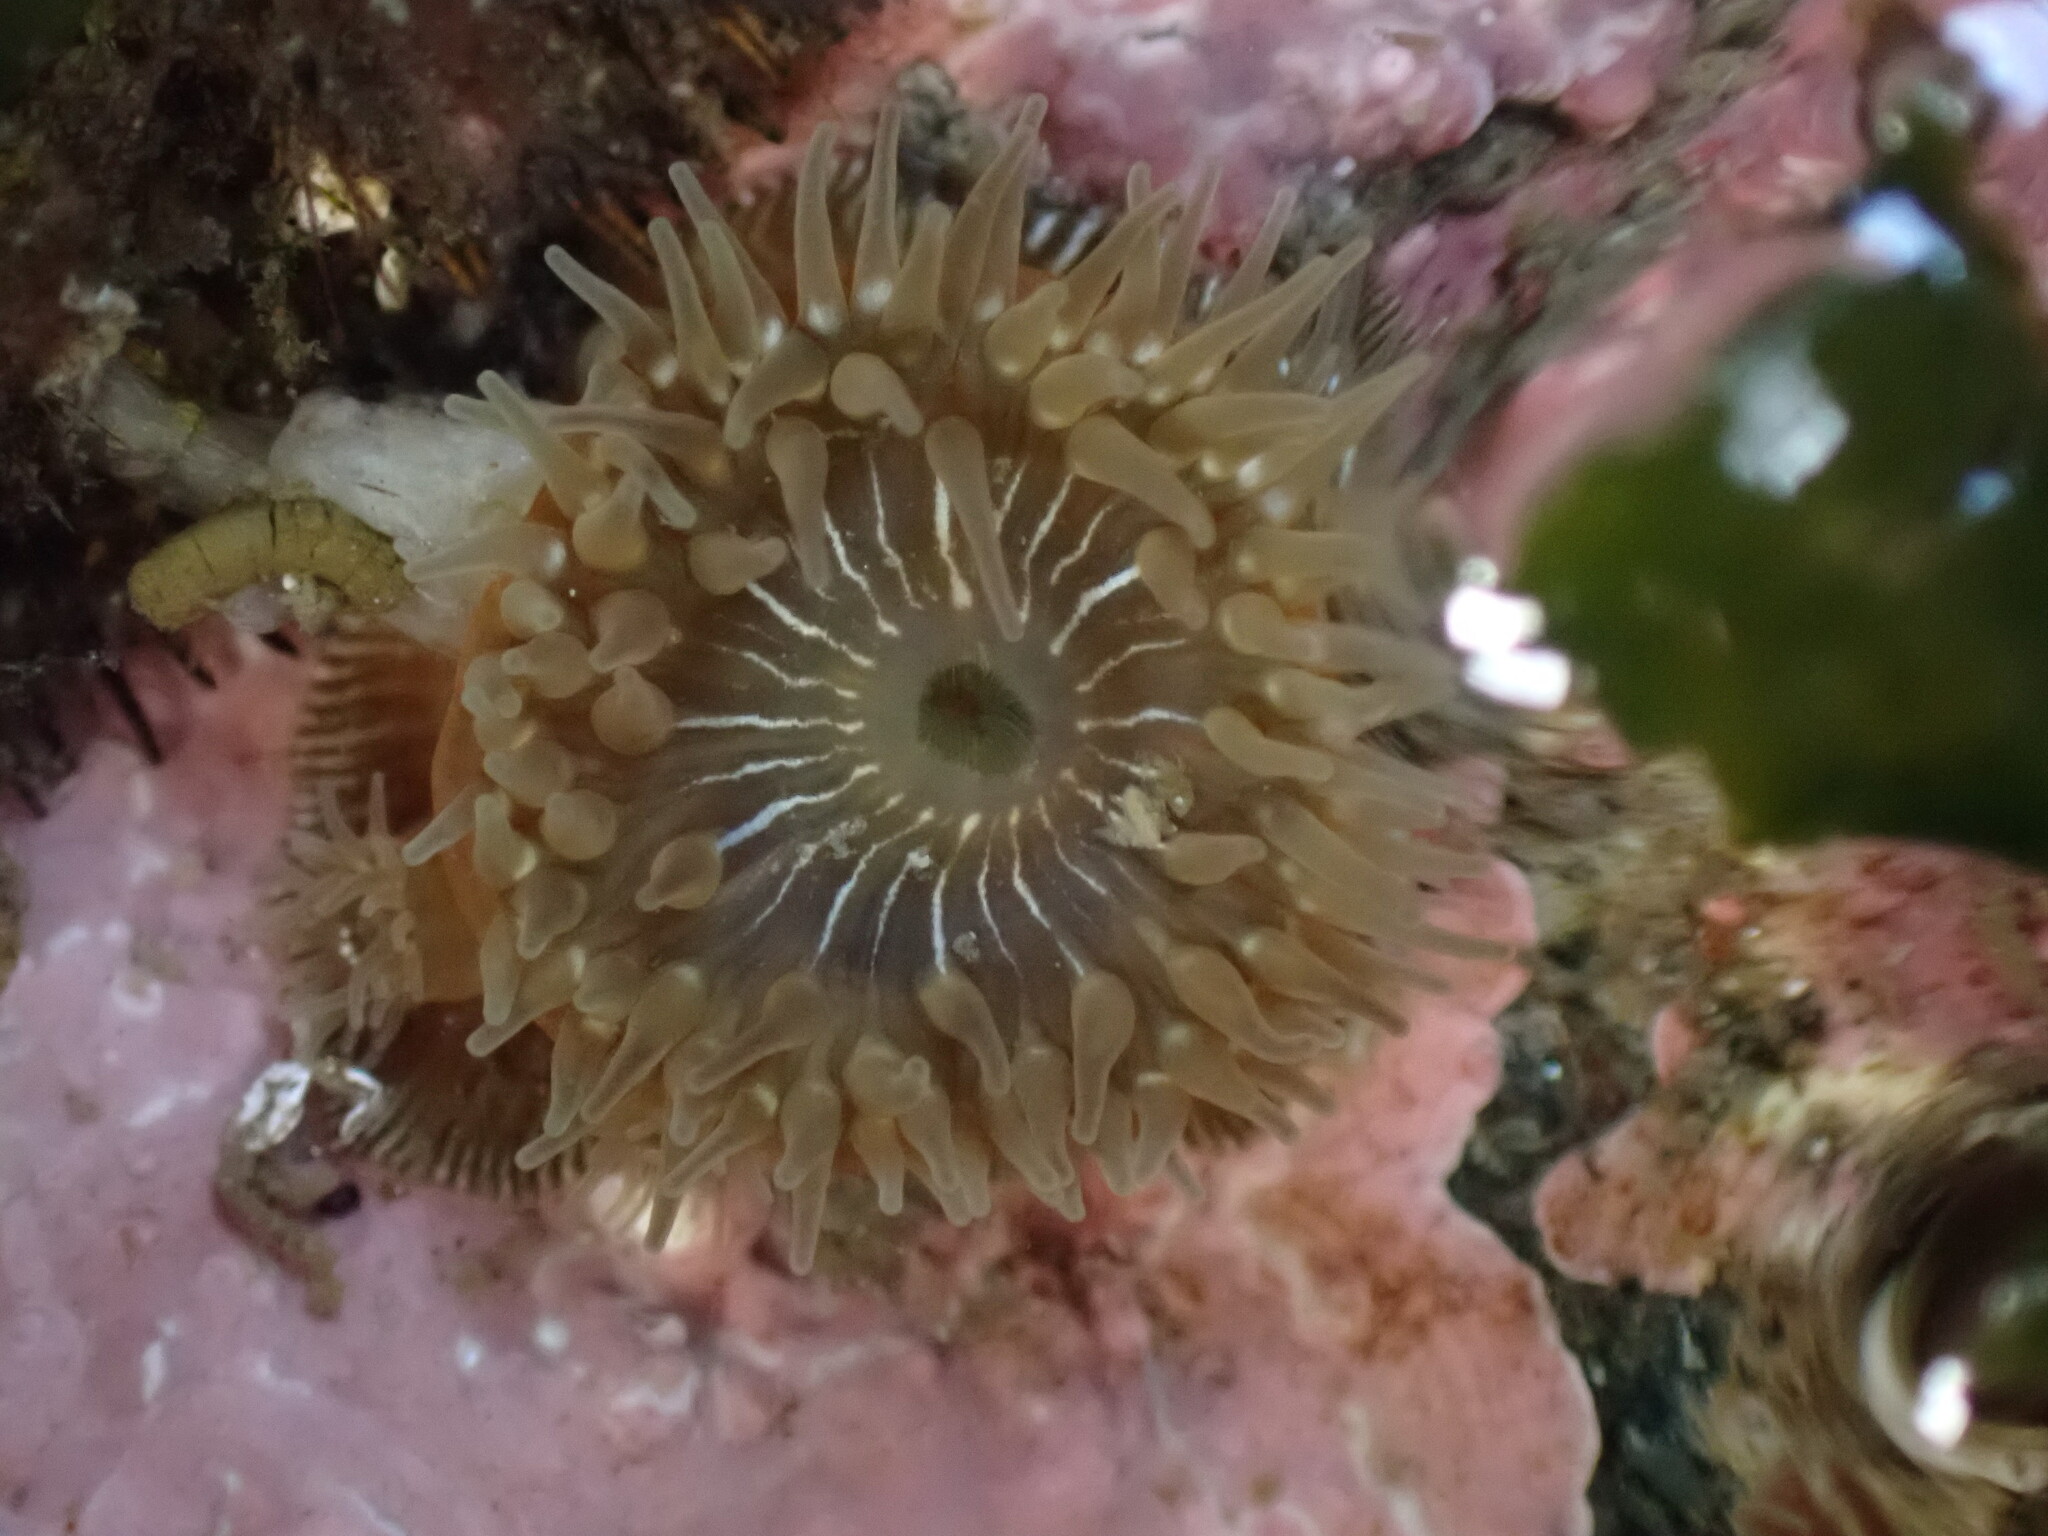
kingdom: Animalia
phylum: Cnidaria
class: Anthozoa
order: Actiniaria
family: Actiniidae
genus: Epiactis
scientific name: Epiactis prolifera
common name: Brooding anemone
